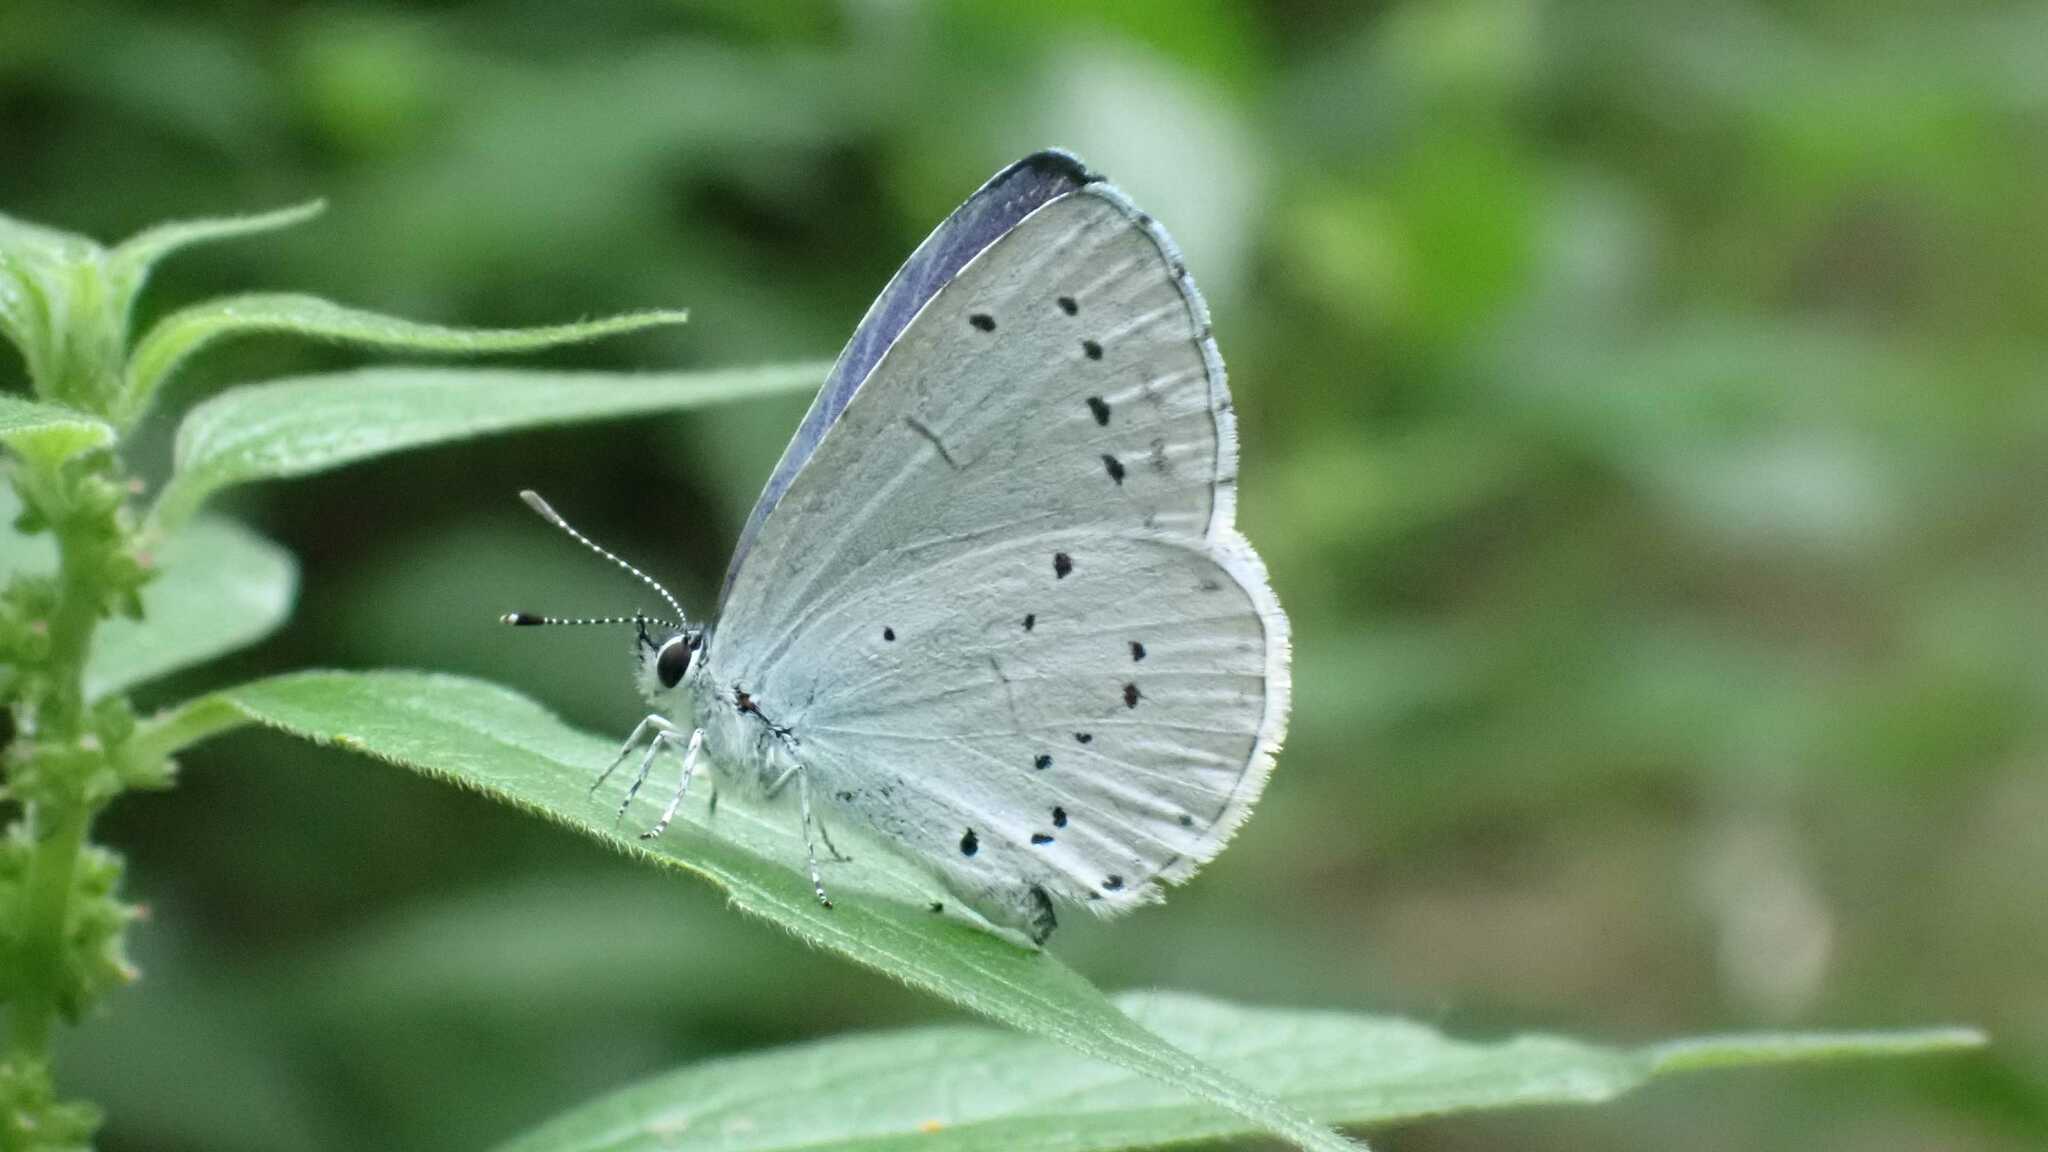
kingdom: Animalia
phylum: Arthropoda
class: Insecta
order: Lepidoptera
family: Lycaenidae
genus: Celastrina
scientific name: Celastrina argiolus
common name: Holly blue
